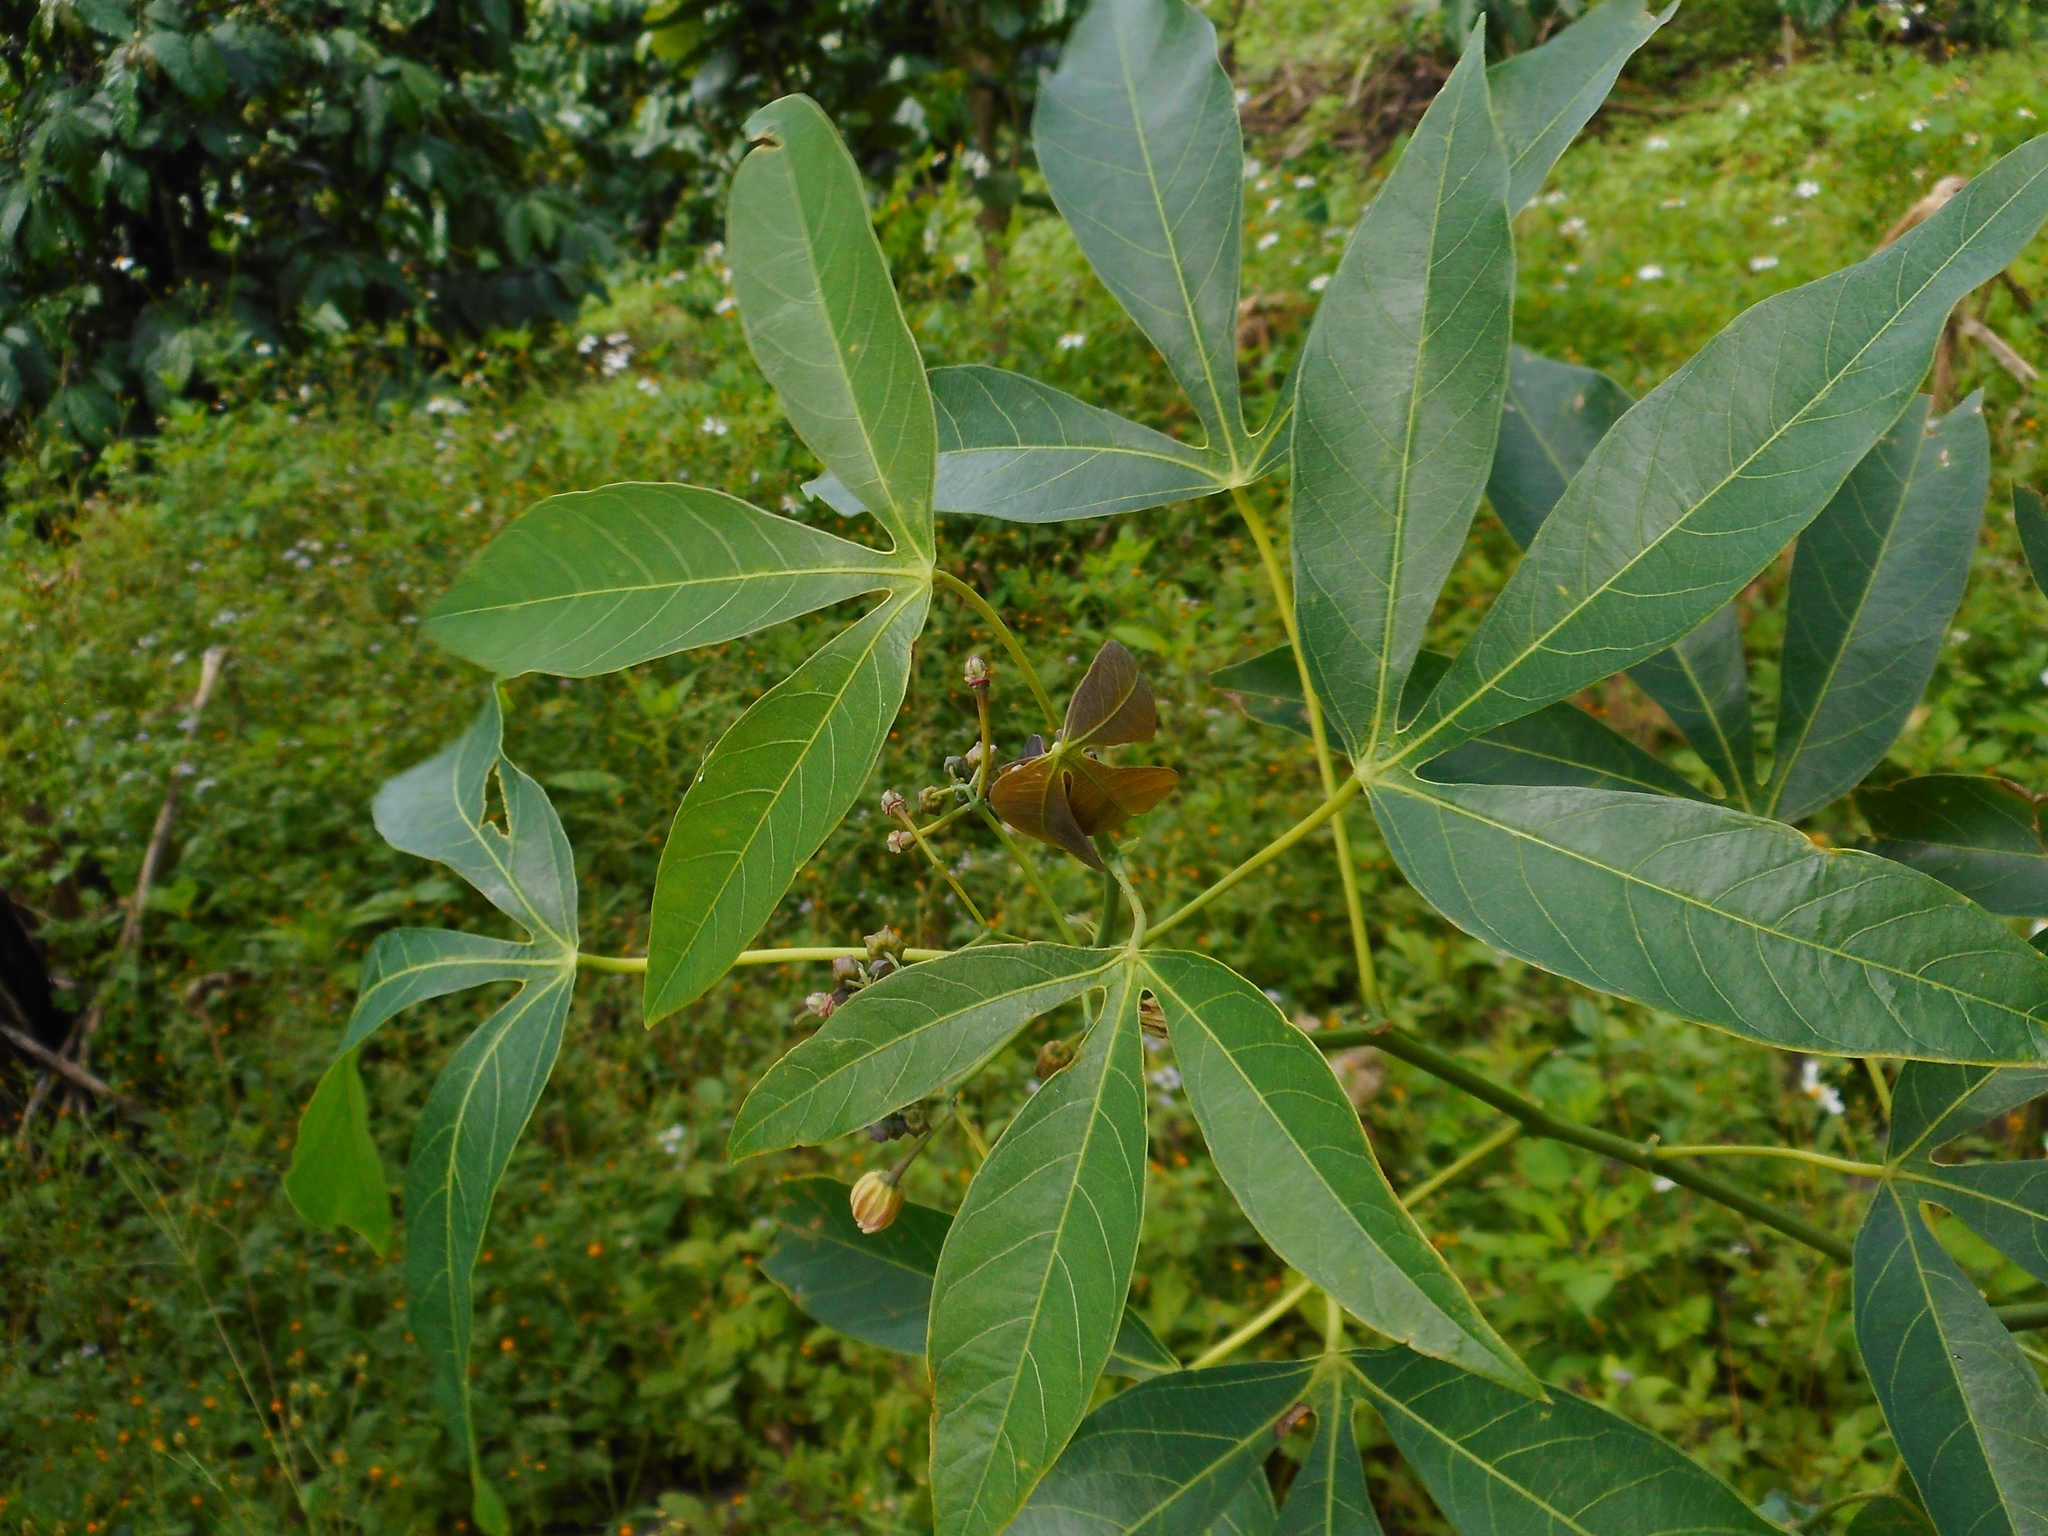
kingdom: Plantae
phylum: Tracheophyta
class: Magnoliopsida
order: Malpighiales
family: Euphorbiaceae
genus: Manihot
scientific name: Manihot esculenta
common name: Cassava
